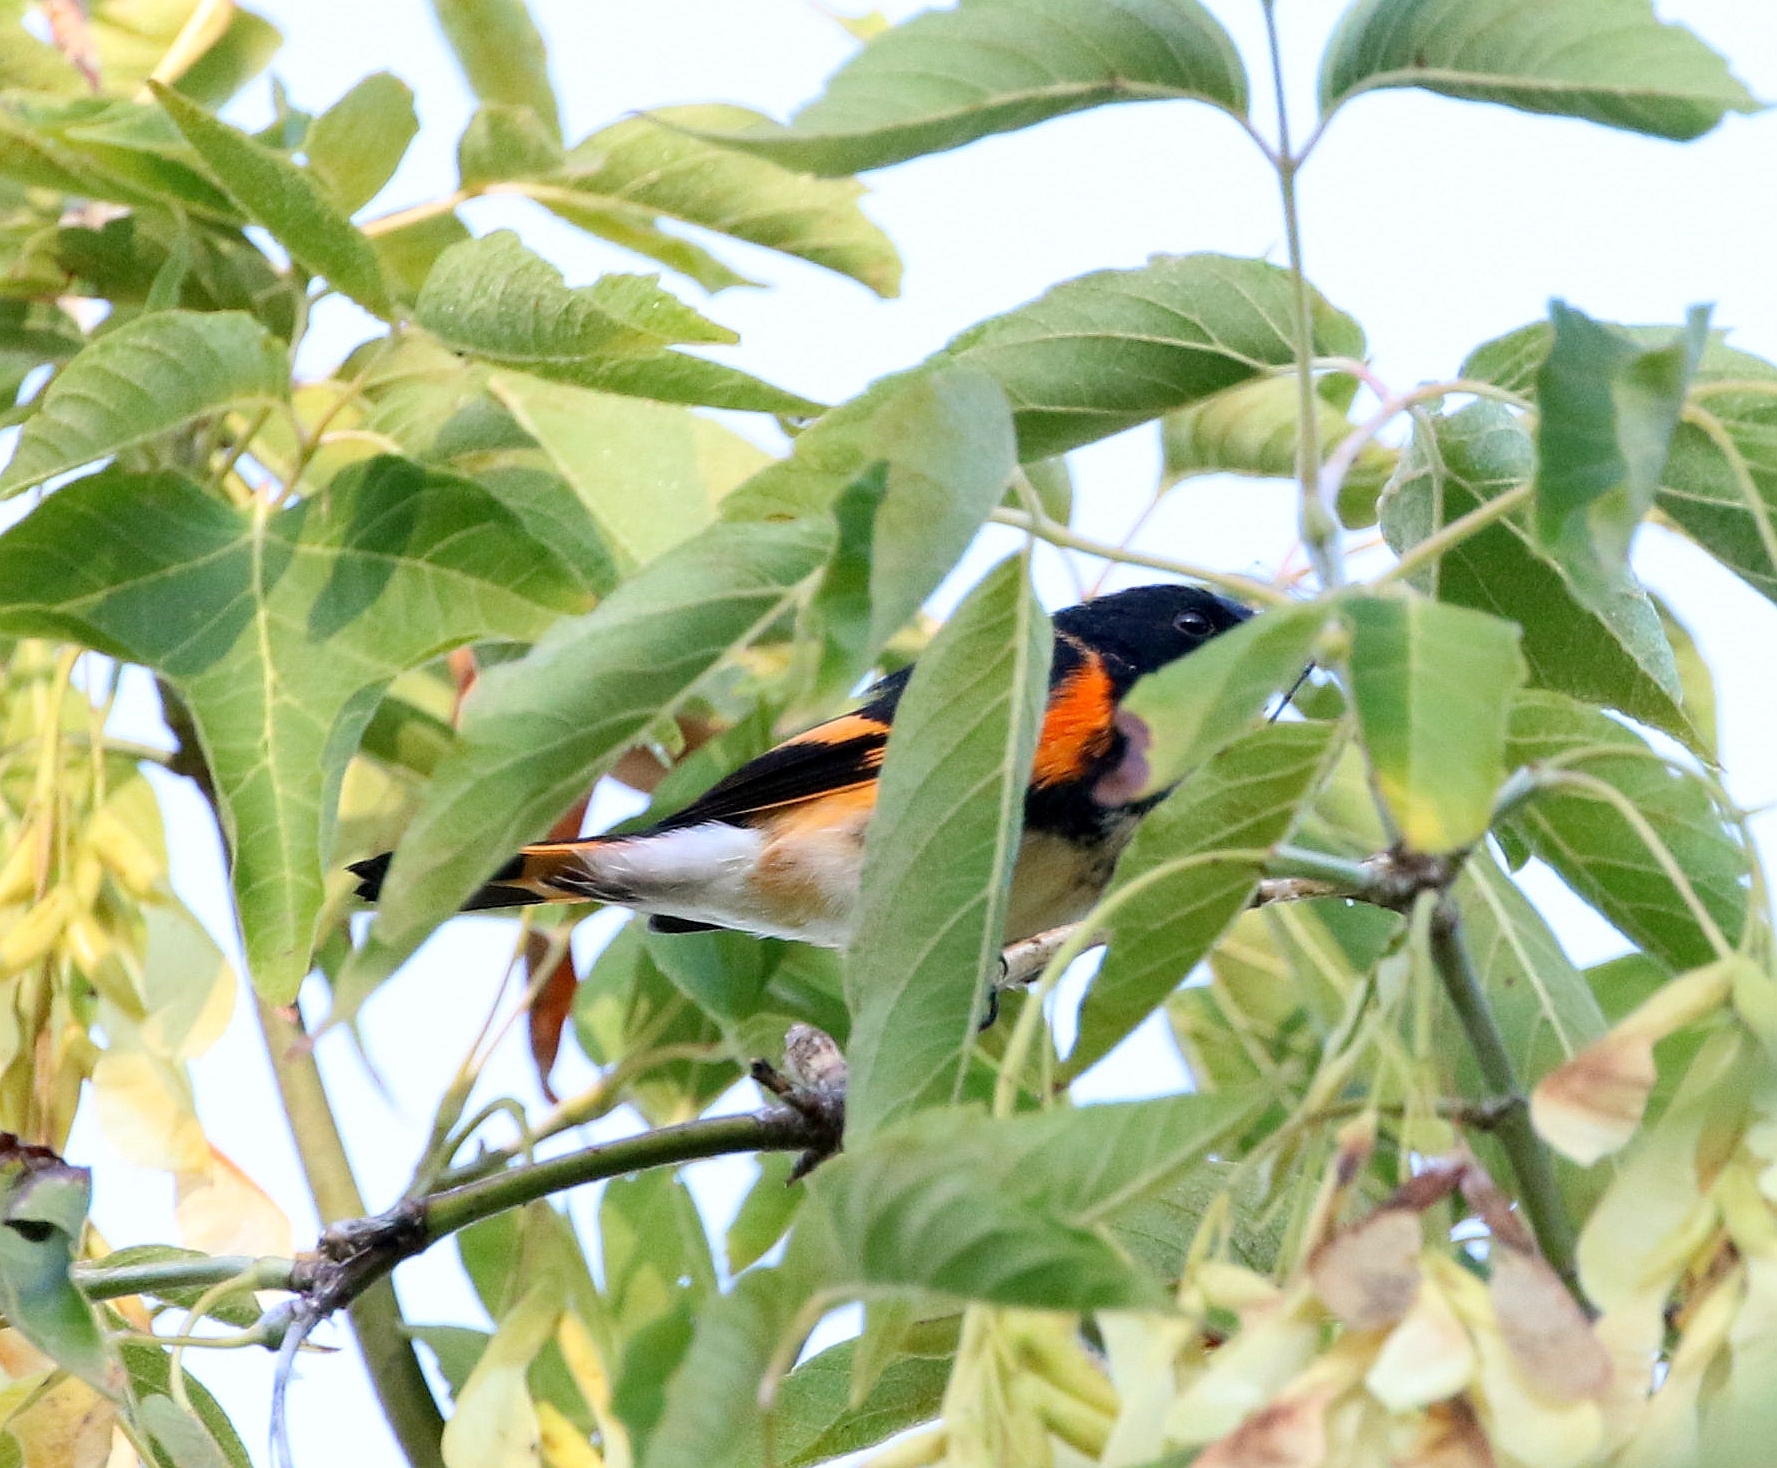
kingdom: Animalia
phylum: Chordata
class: Aves
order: Passeriformes
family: Parulidae
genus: Setophaga
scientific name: Setophaga ruticilla
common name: American redstart
